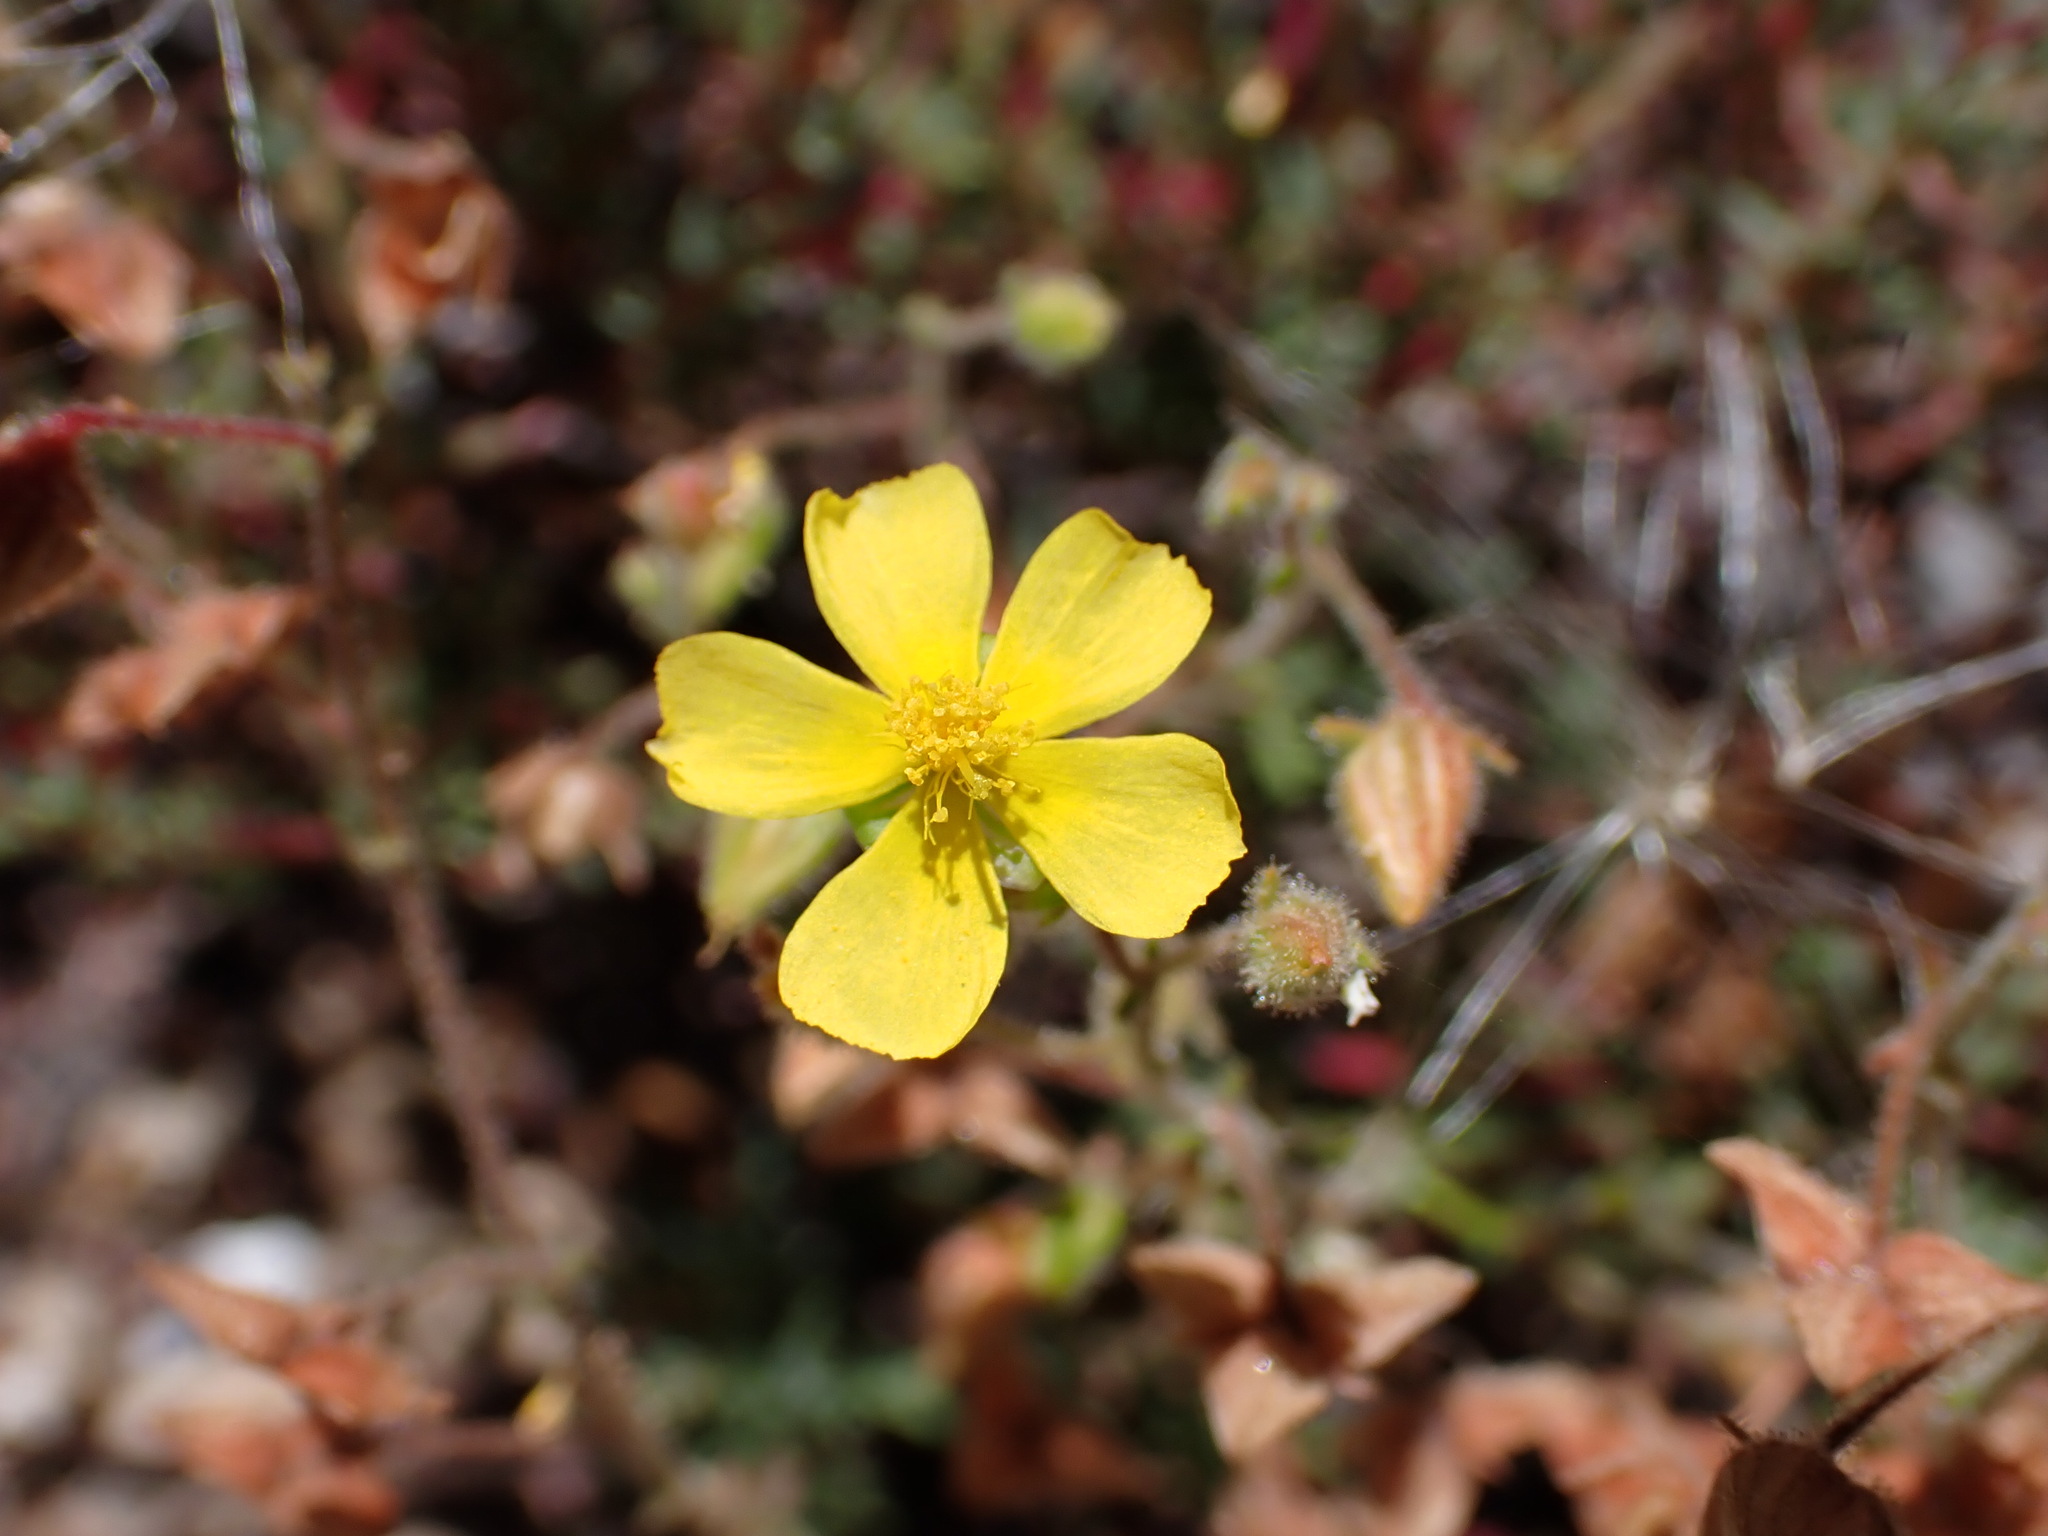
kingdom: Plantae
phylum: Tracheophyta
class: Magnoliopsida
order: Malvales
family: Cistaceae
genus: Fumana
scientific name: Fumana thymifolia
